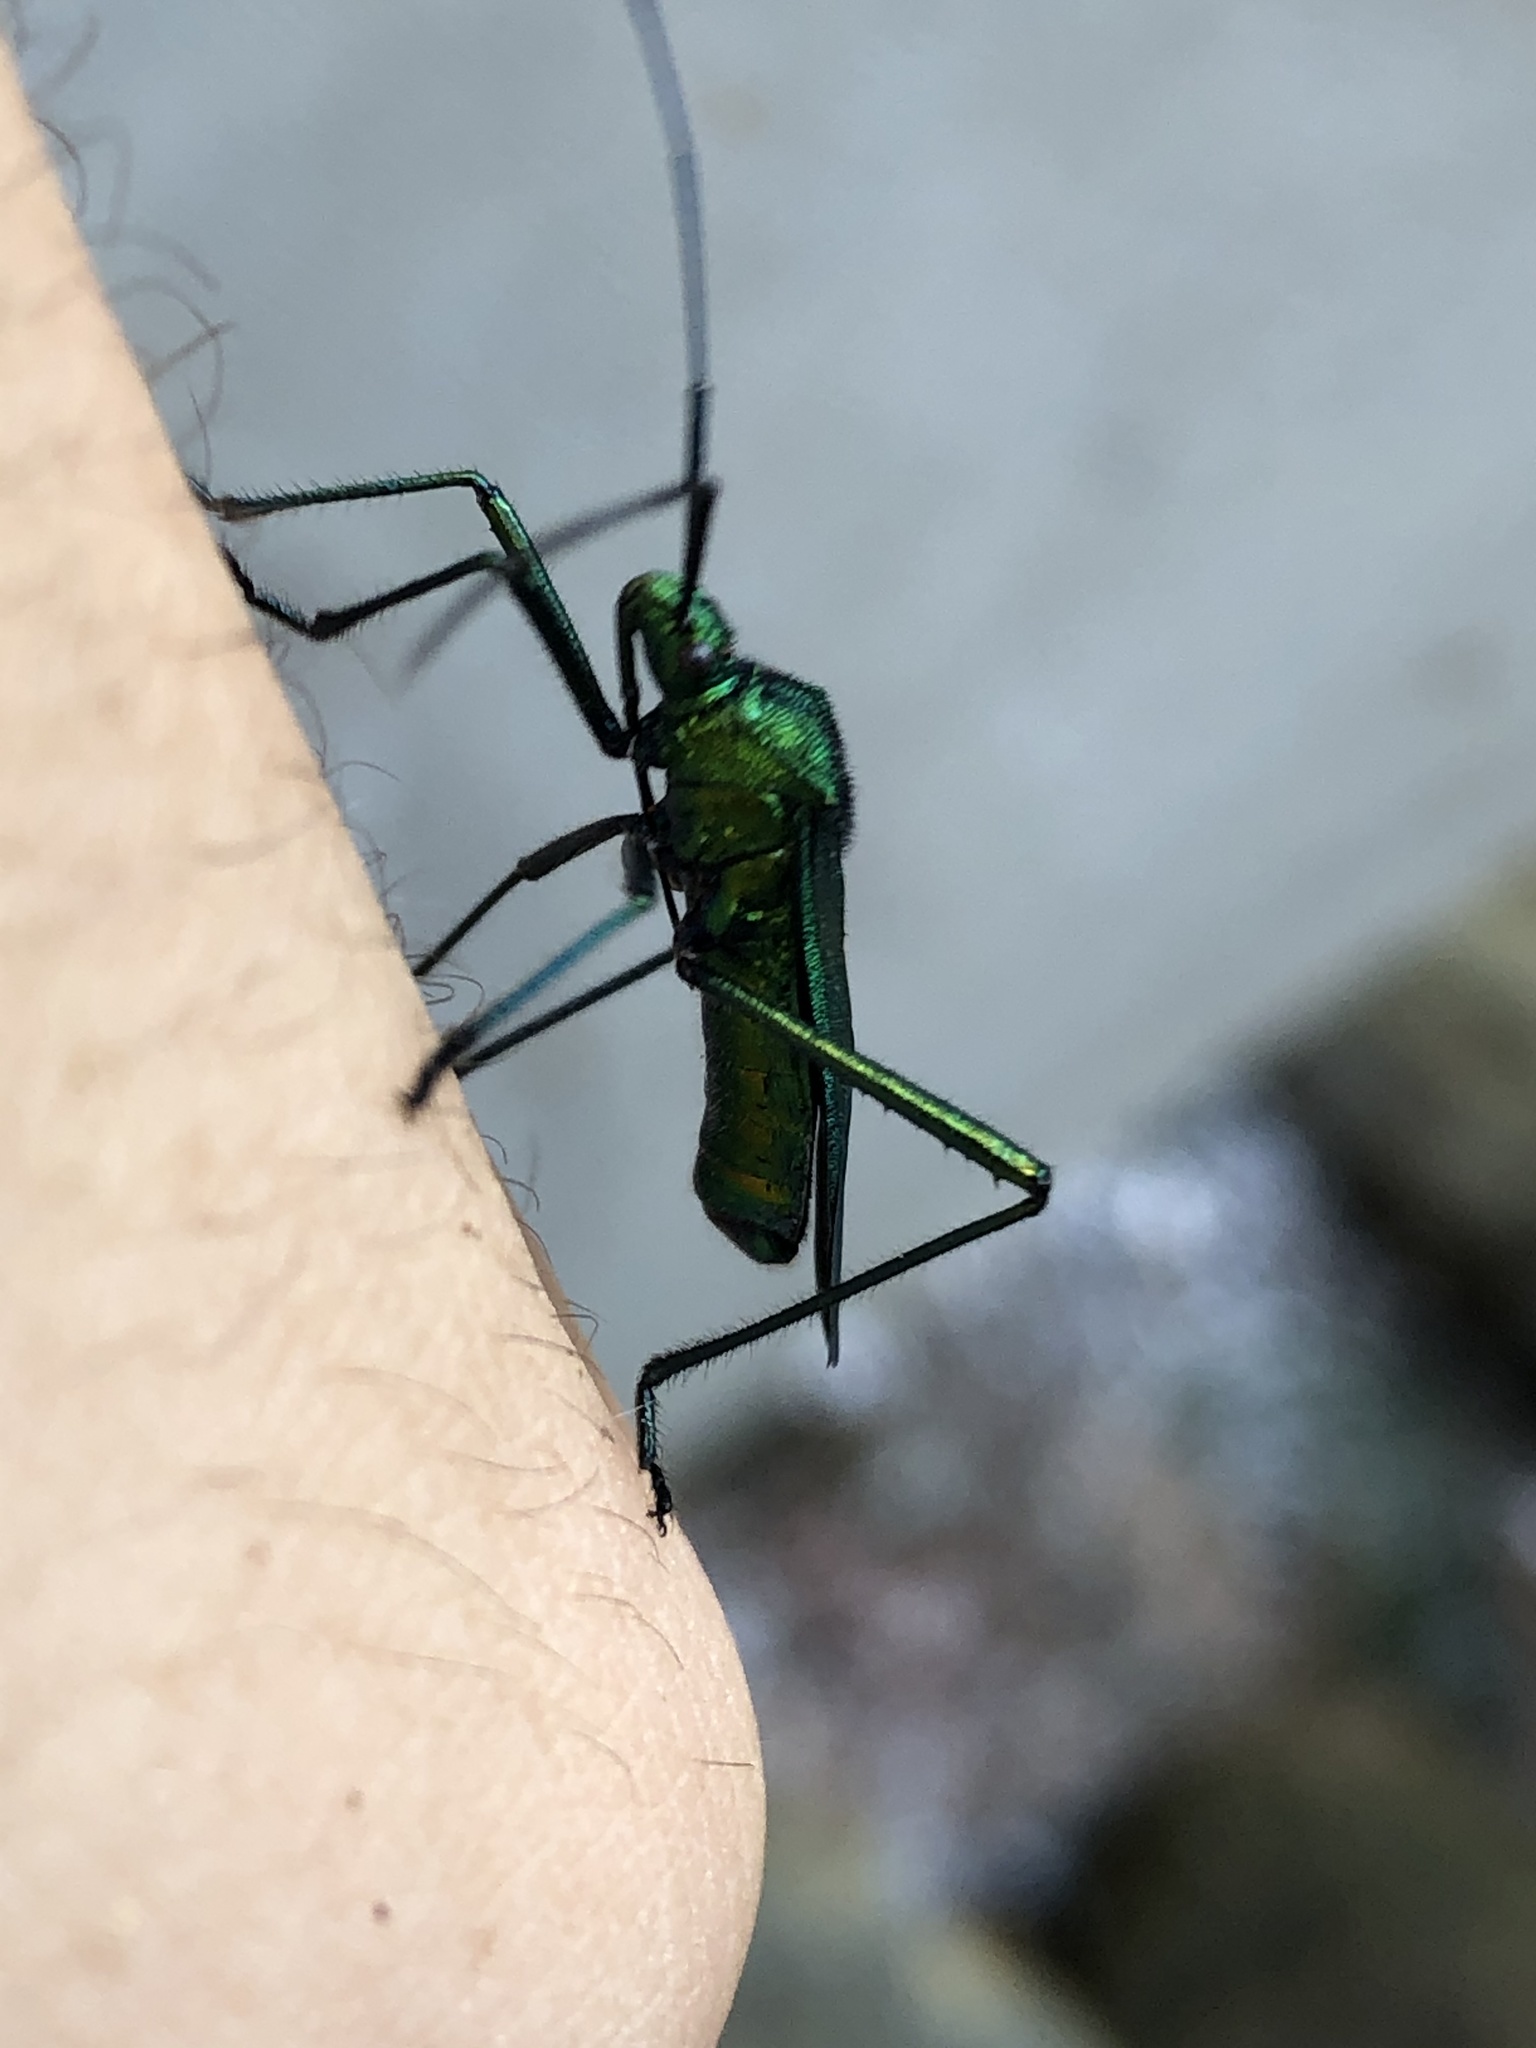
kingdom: Animalia
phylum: Arthropoda
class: Insecta
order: Hemiptera
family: Coreidae
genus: Phthiadema
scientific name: Phthiadema smaragdina
